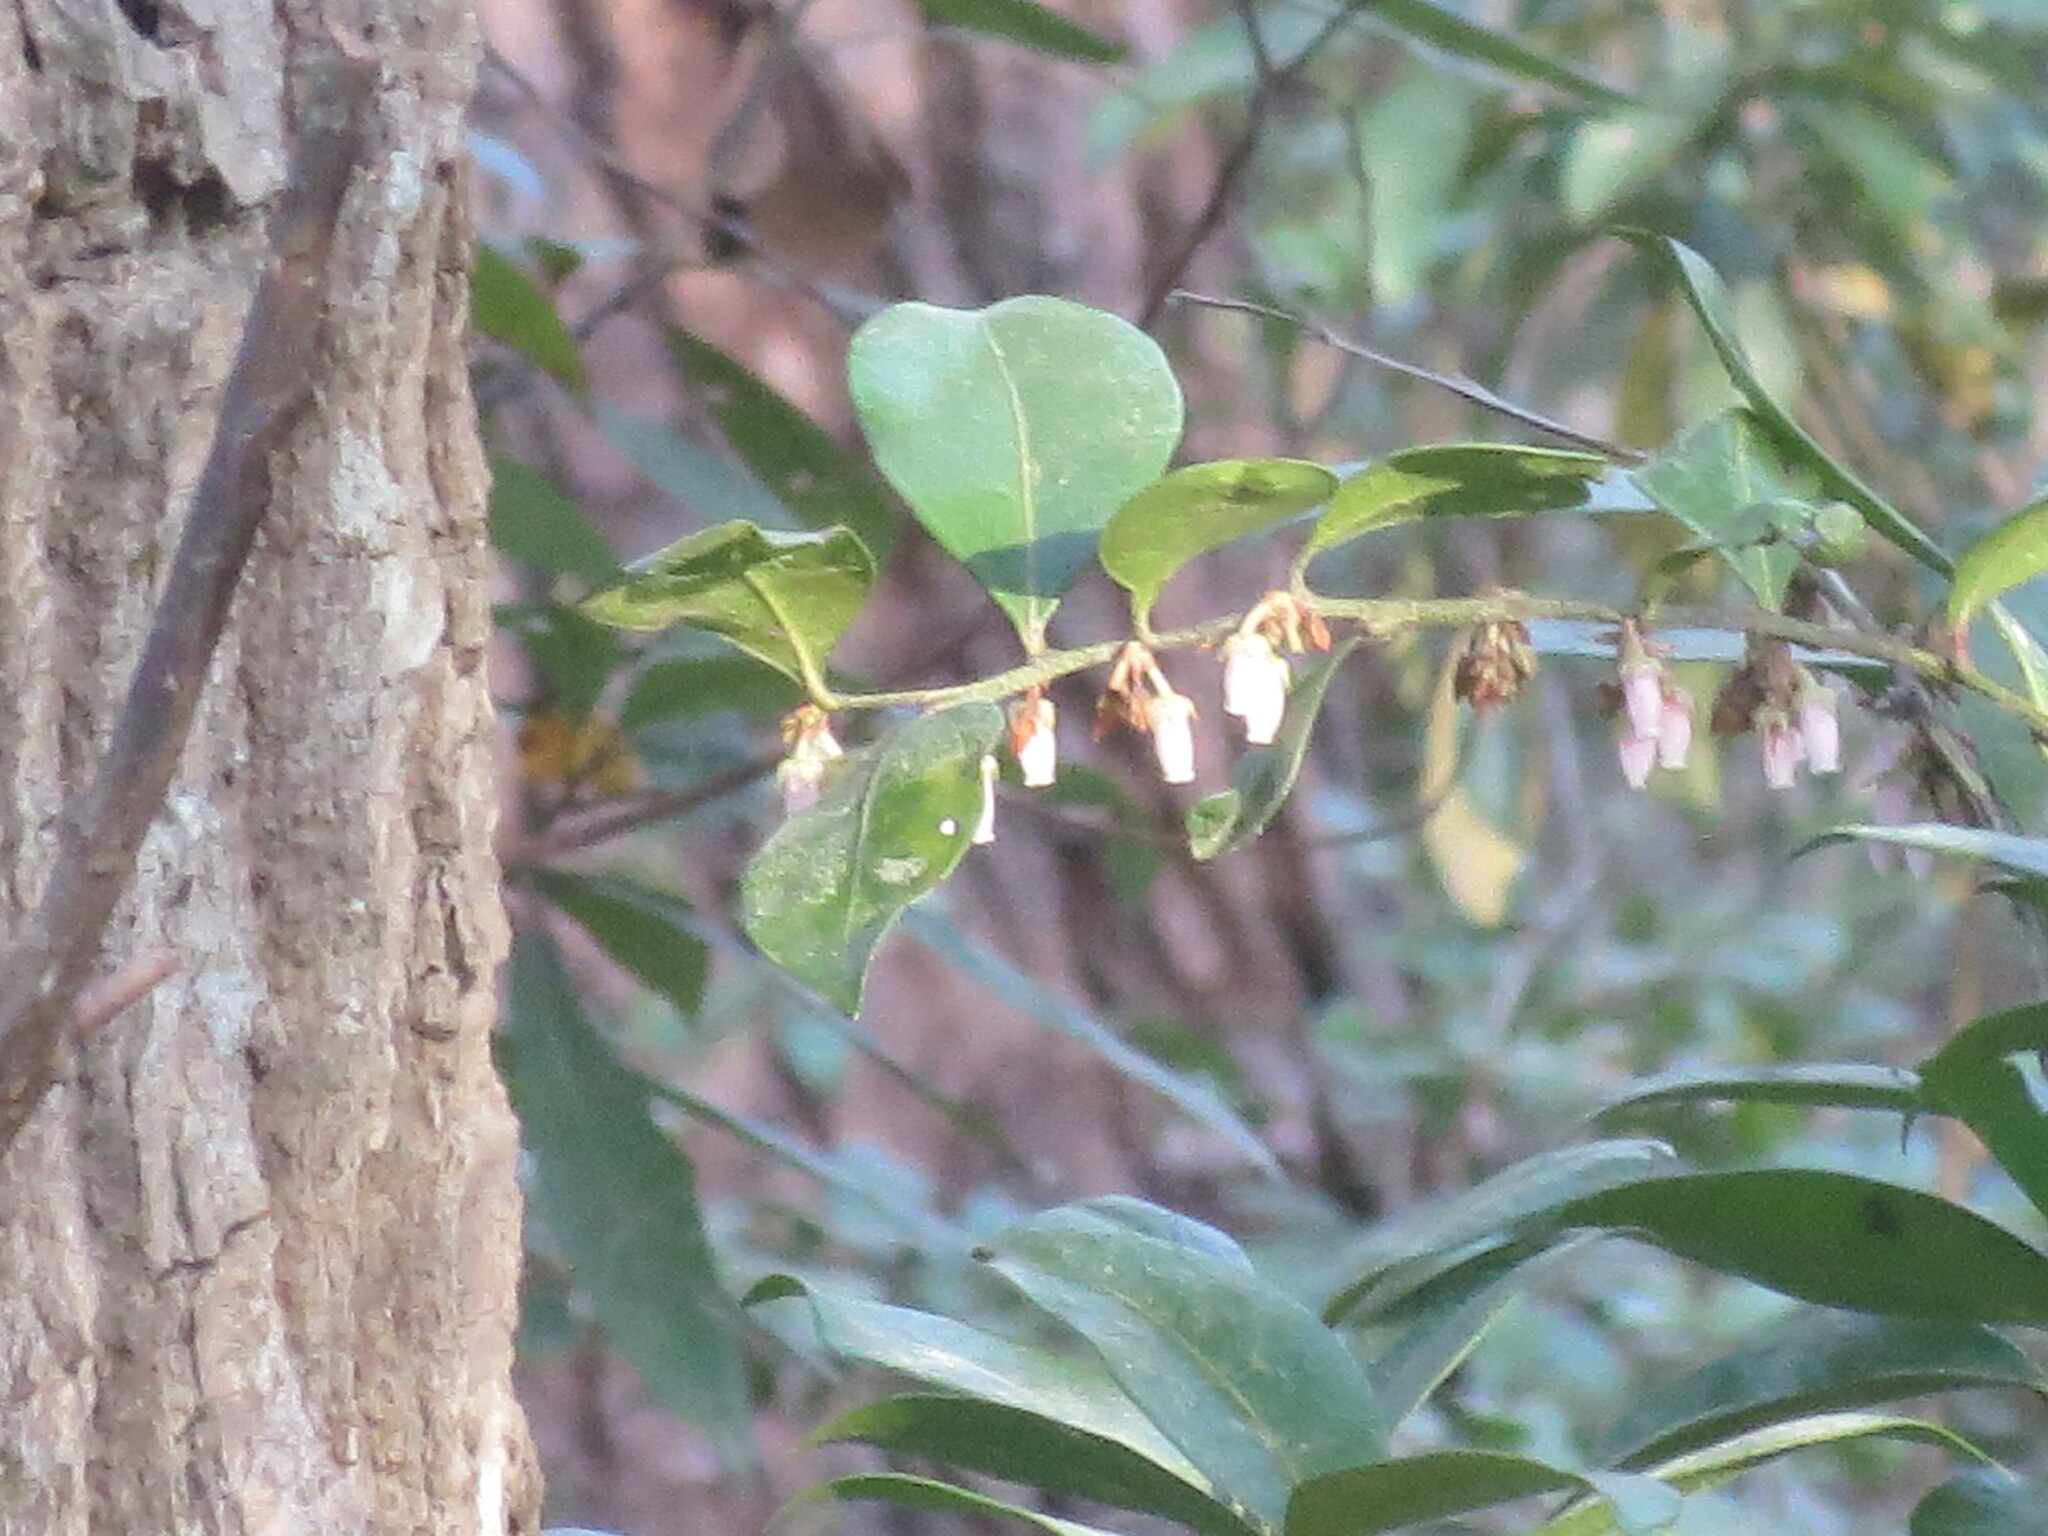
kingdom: Plantae
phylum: Tracheophyta
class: Magnoliopsida
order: Ericales
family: Ericaceae
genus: Lyonia
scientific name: Lyonia lucida
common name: Fetterbush
